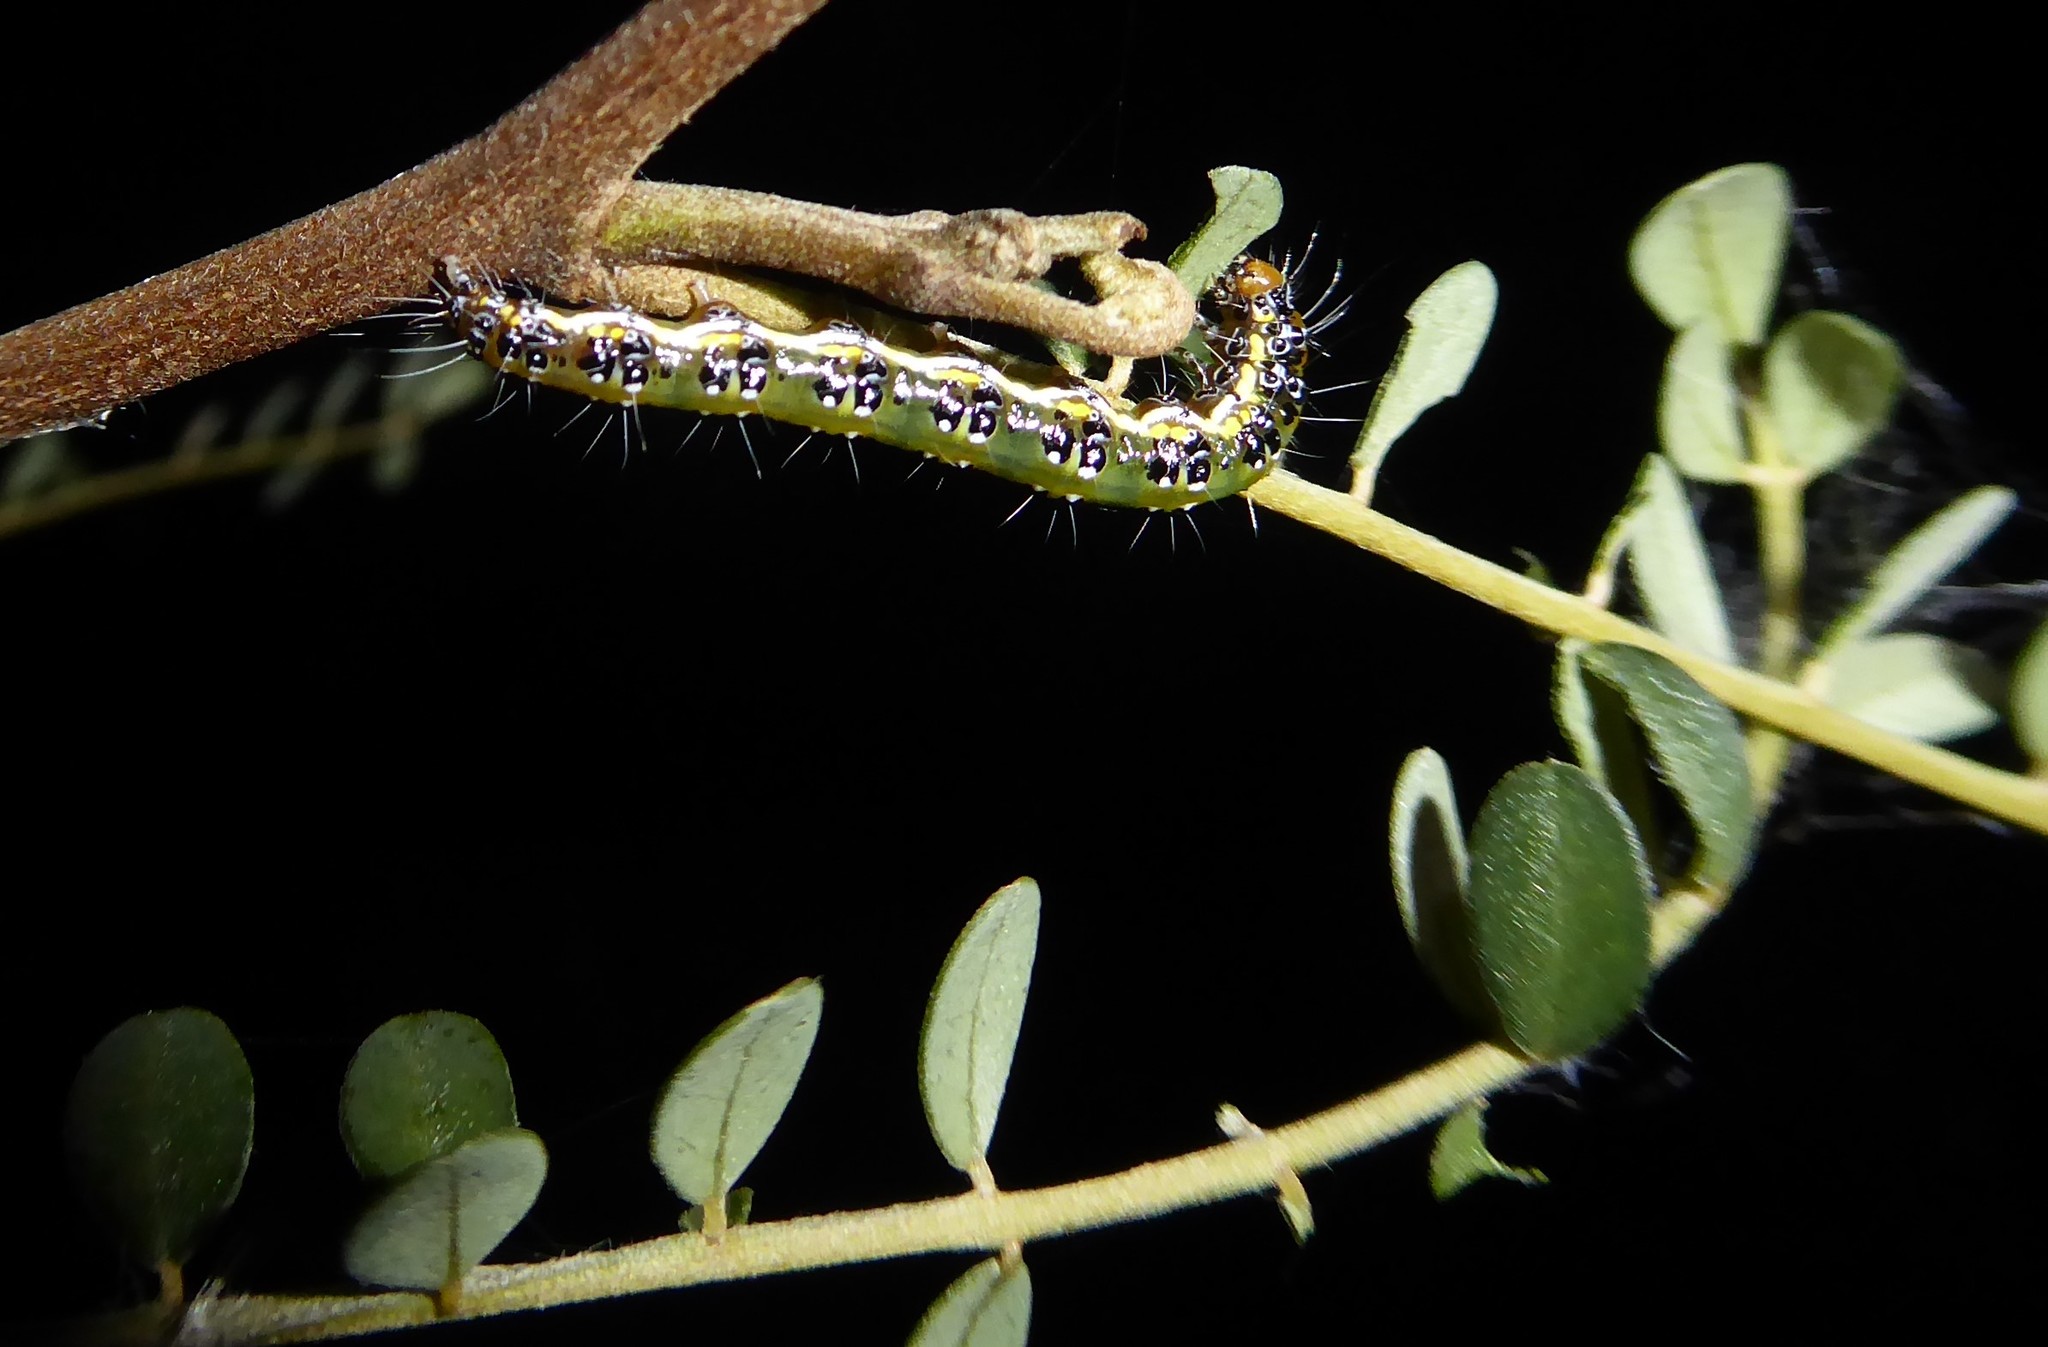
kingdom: Animalia
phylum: Arthropoda
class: Insecta
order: Lepidoptera
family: Crambidae
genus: Uresiphita
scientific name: Uresiphita
